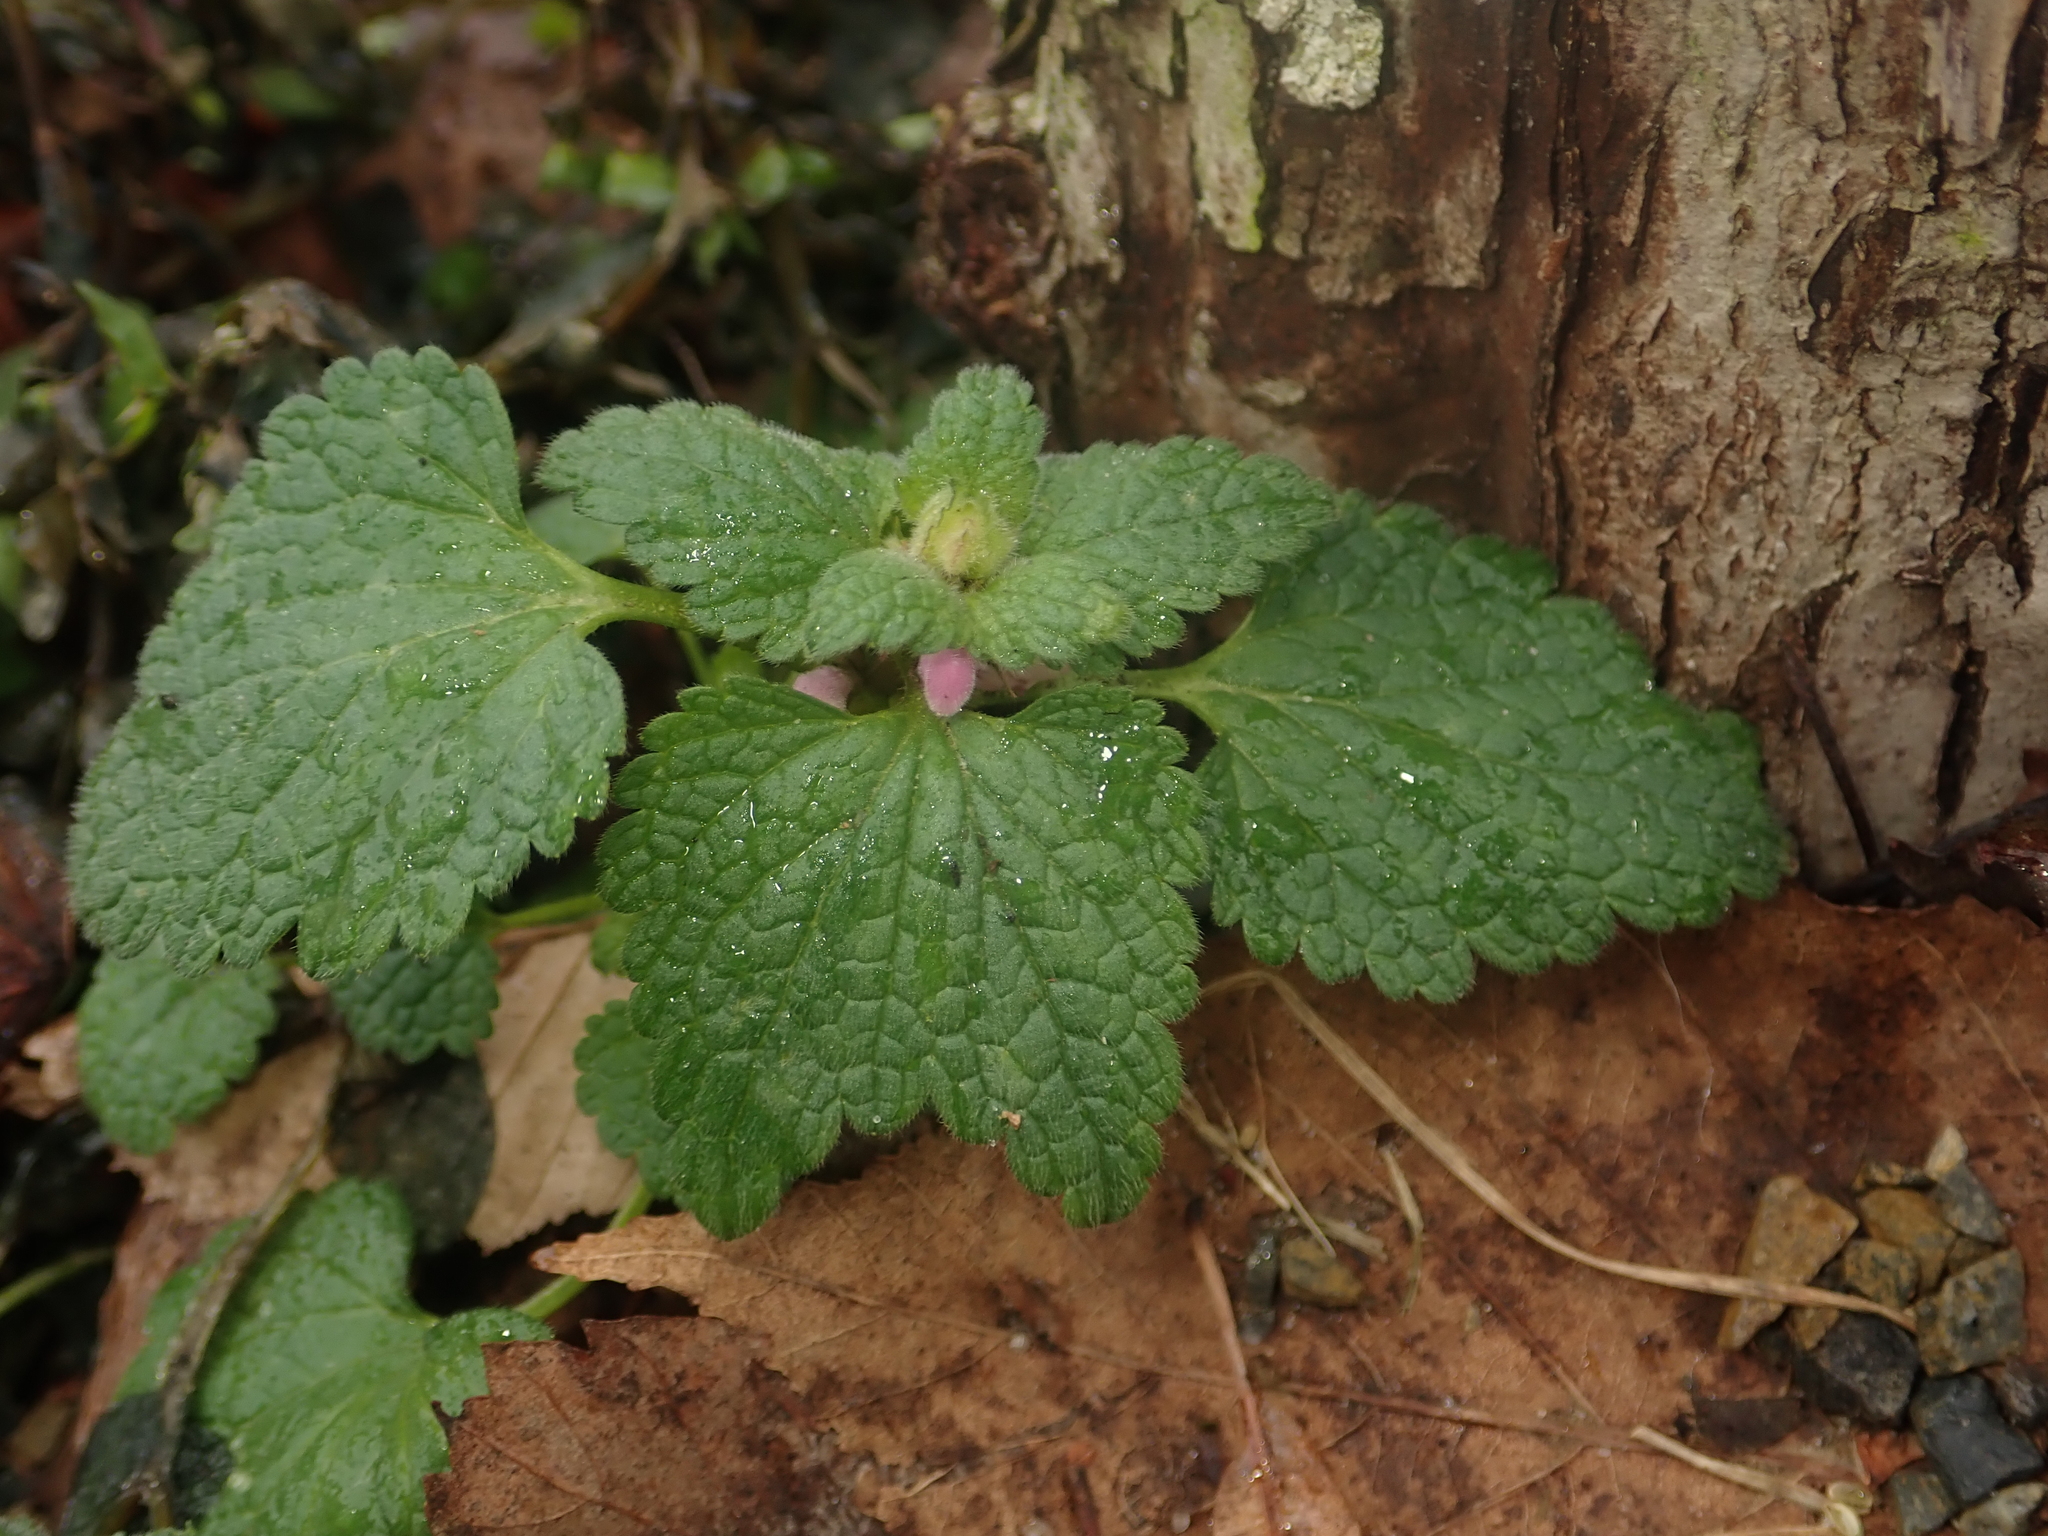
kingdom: Plantae
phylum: Tracheophyta
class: Magnoliopsida
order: Lamiales
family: Lamiaceae
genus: Lamium
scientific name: Lamium purpureum
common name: Red dead-nettle
